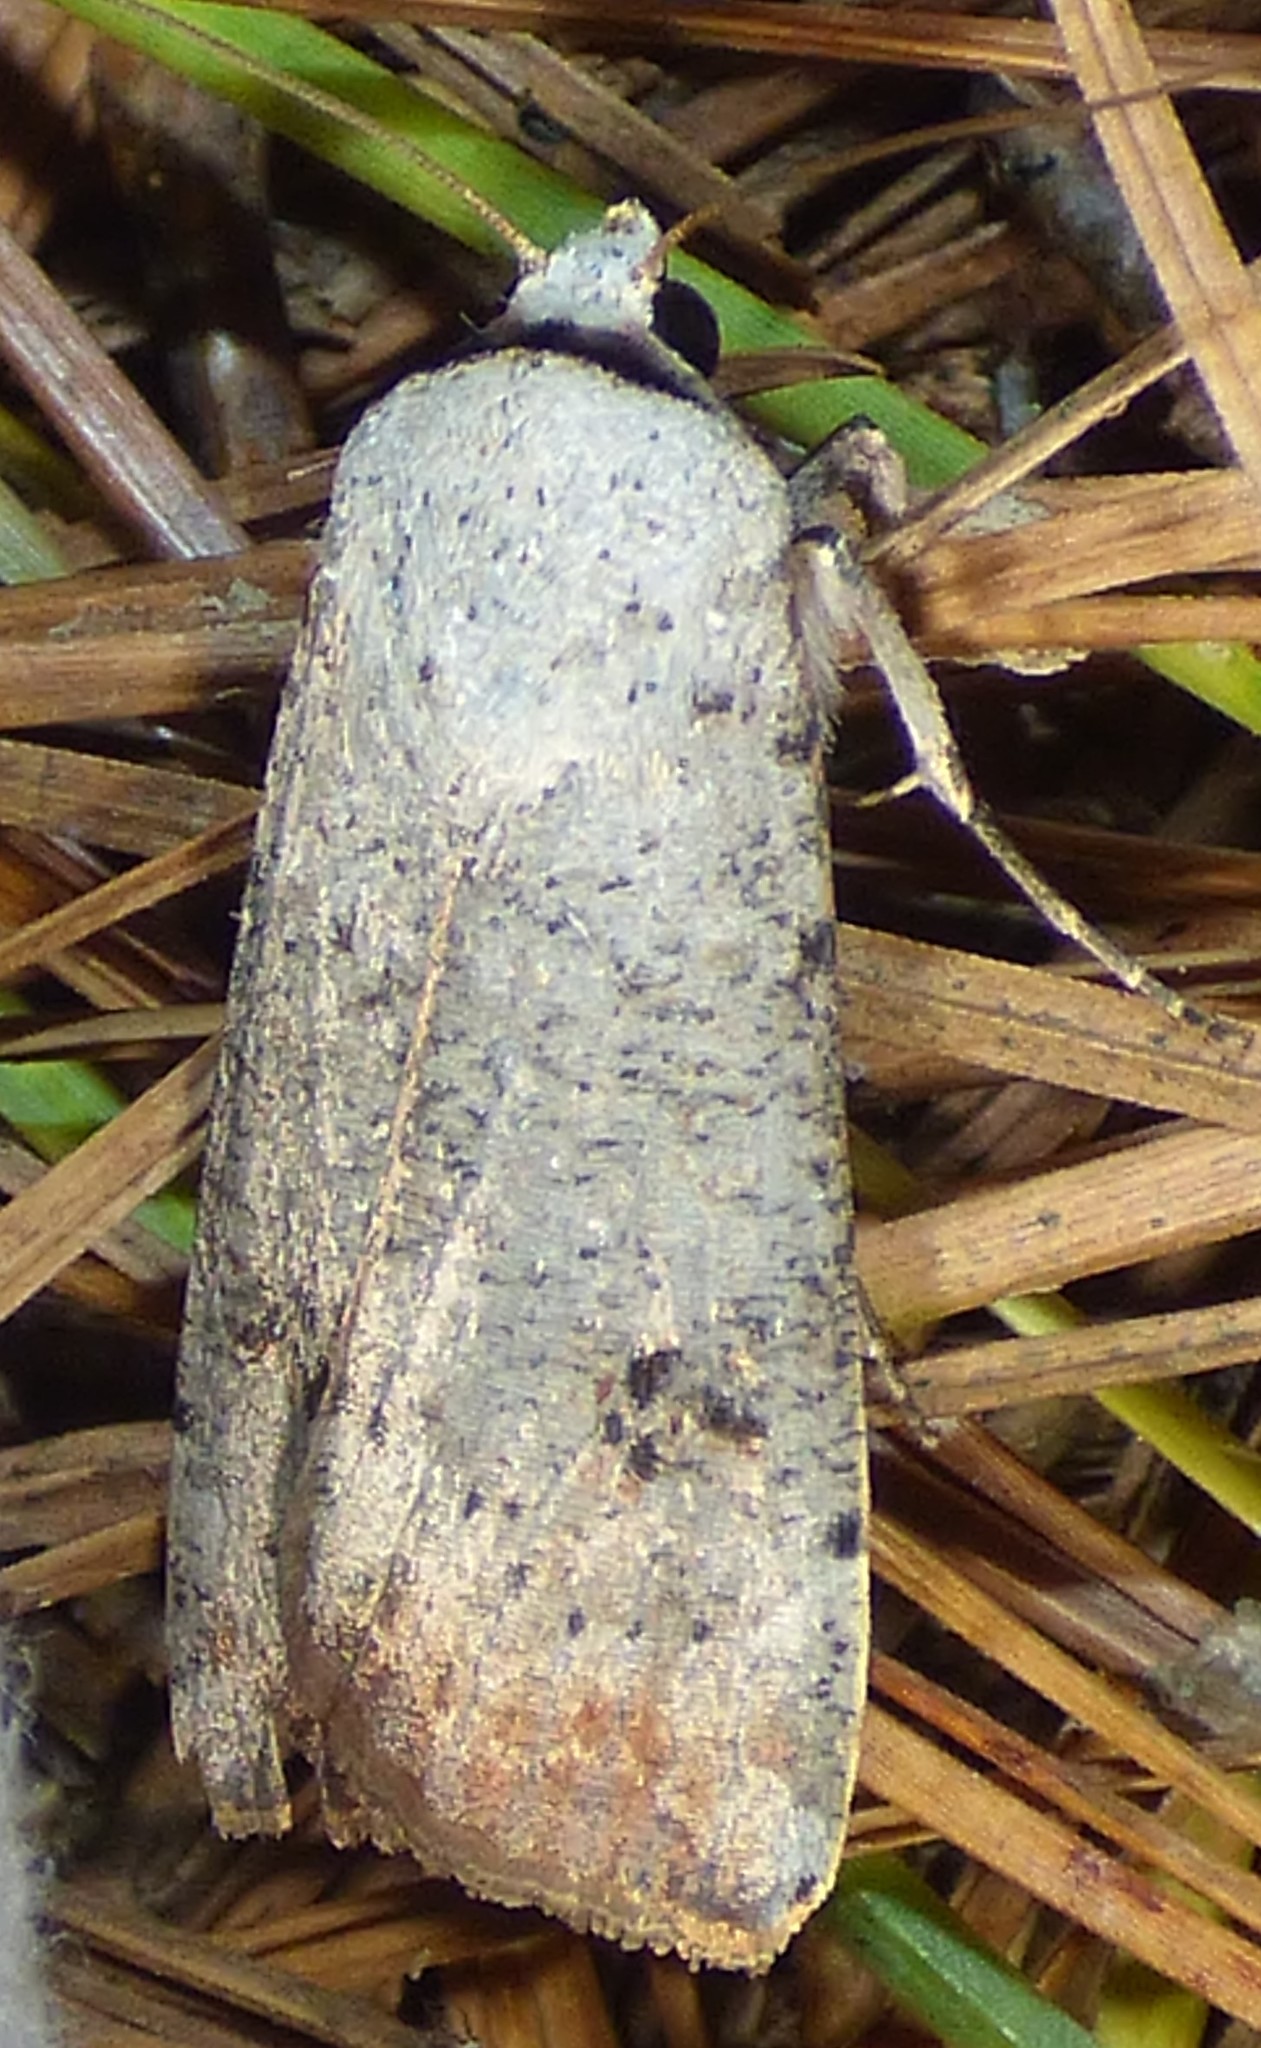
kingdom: Animalia
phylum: Arthropoda
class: Insecta
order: Lepidoptera
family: Noctuidae
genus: Anicla
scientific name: Anicla infecta
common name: Green cutworm
